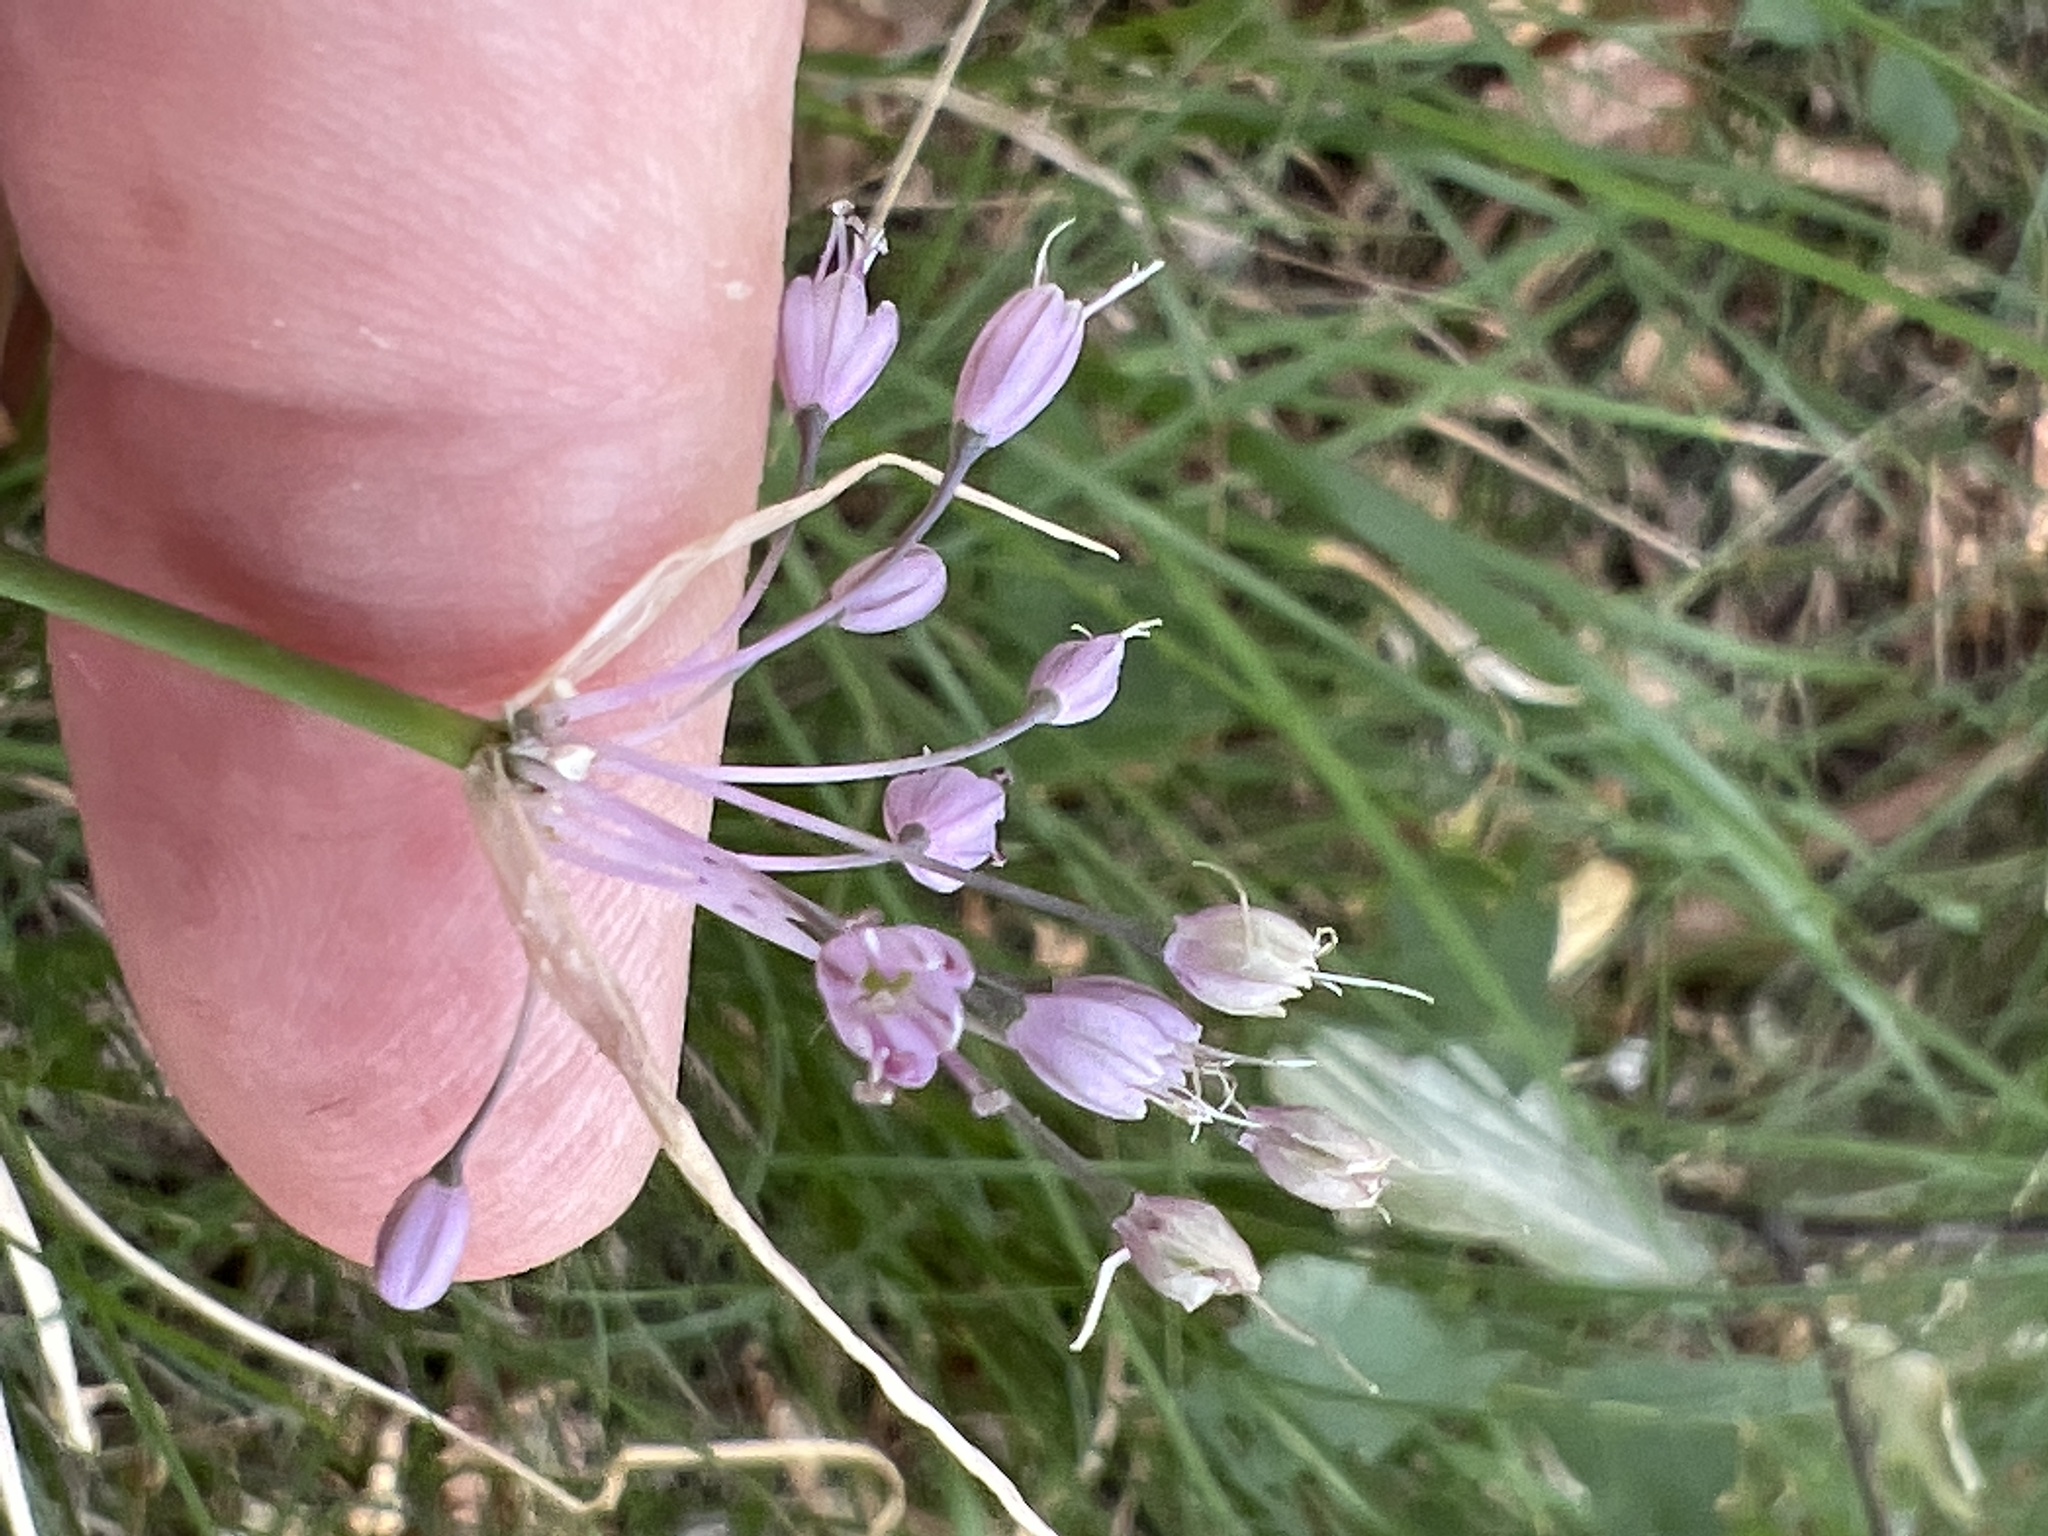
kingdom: Plantae
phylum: Tracheophyta
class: Liliopsida
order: Asparagales
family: Amaryllidaceae
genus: Allium
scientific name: Allium carinatum
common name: Keeled garlic
